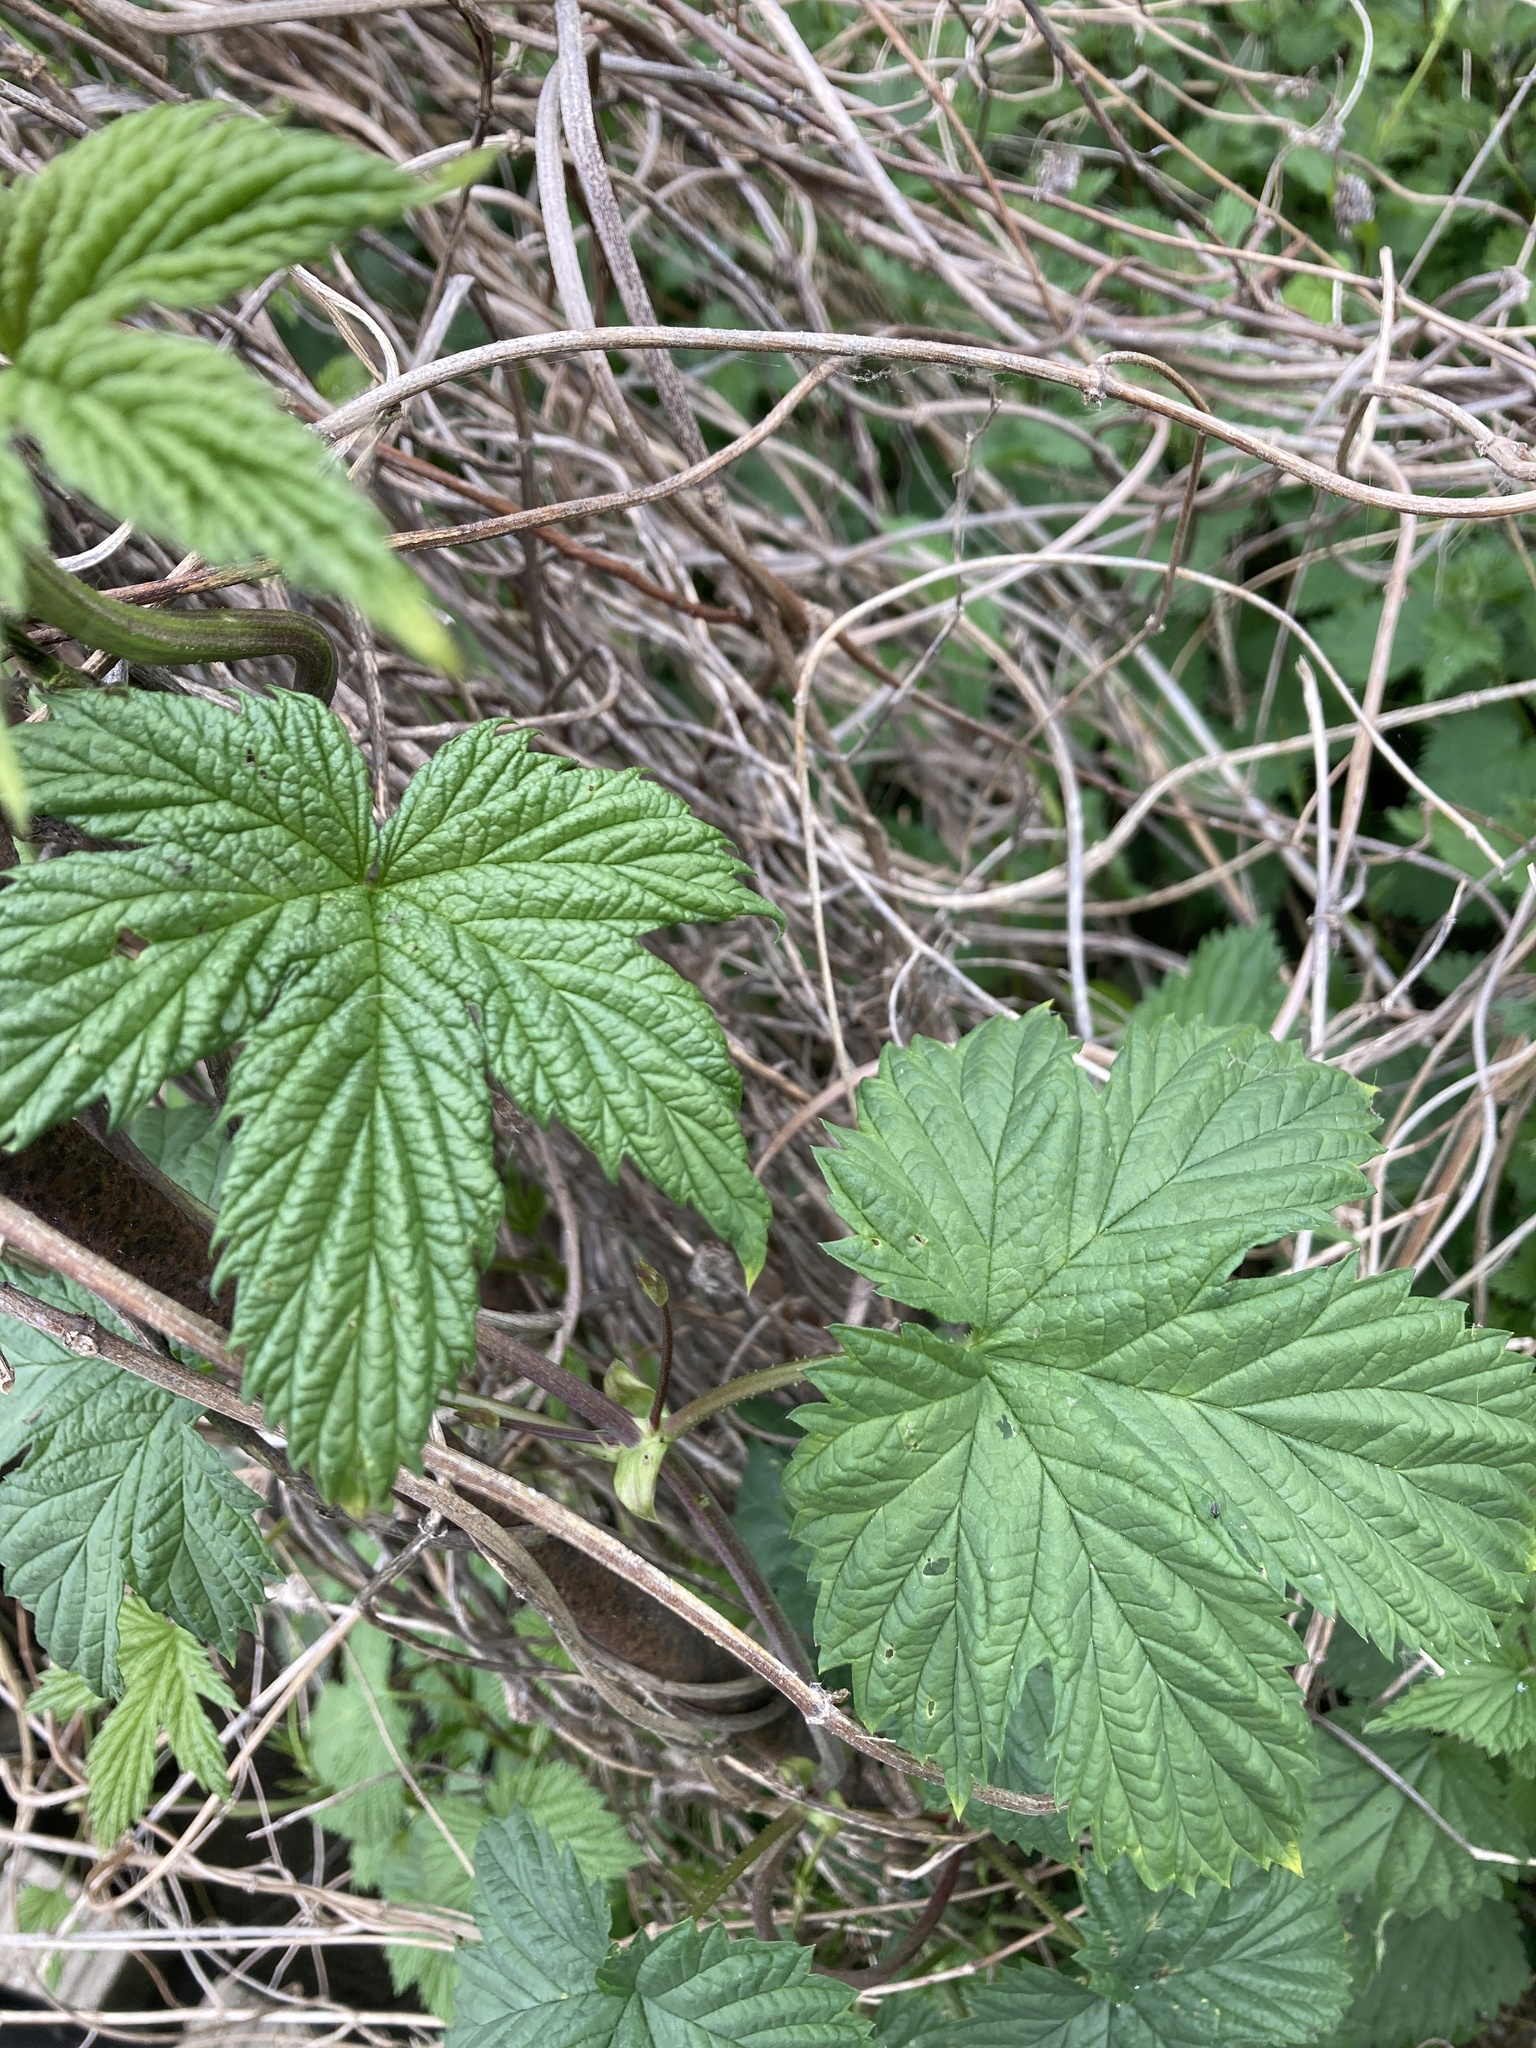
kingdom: Plantae
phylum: Tracheophyta
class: Magnoliopsida
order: Rosales
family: Cannabaceae
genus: Humulus
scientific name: Humulus lupulus
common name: Hop
